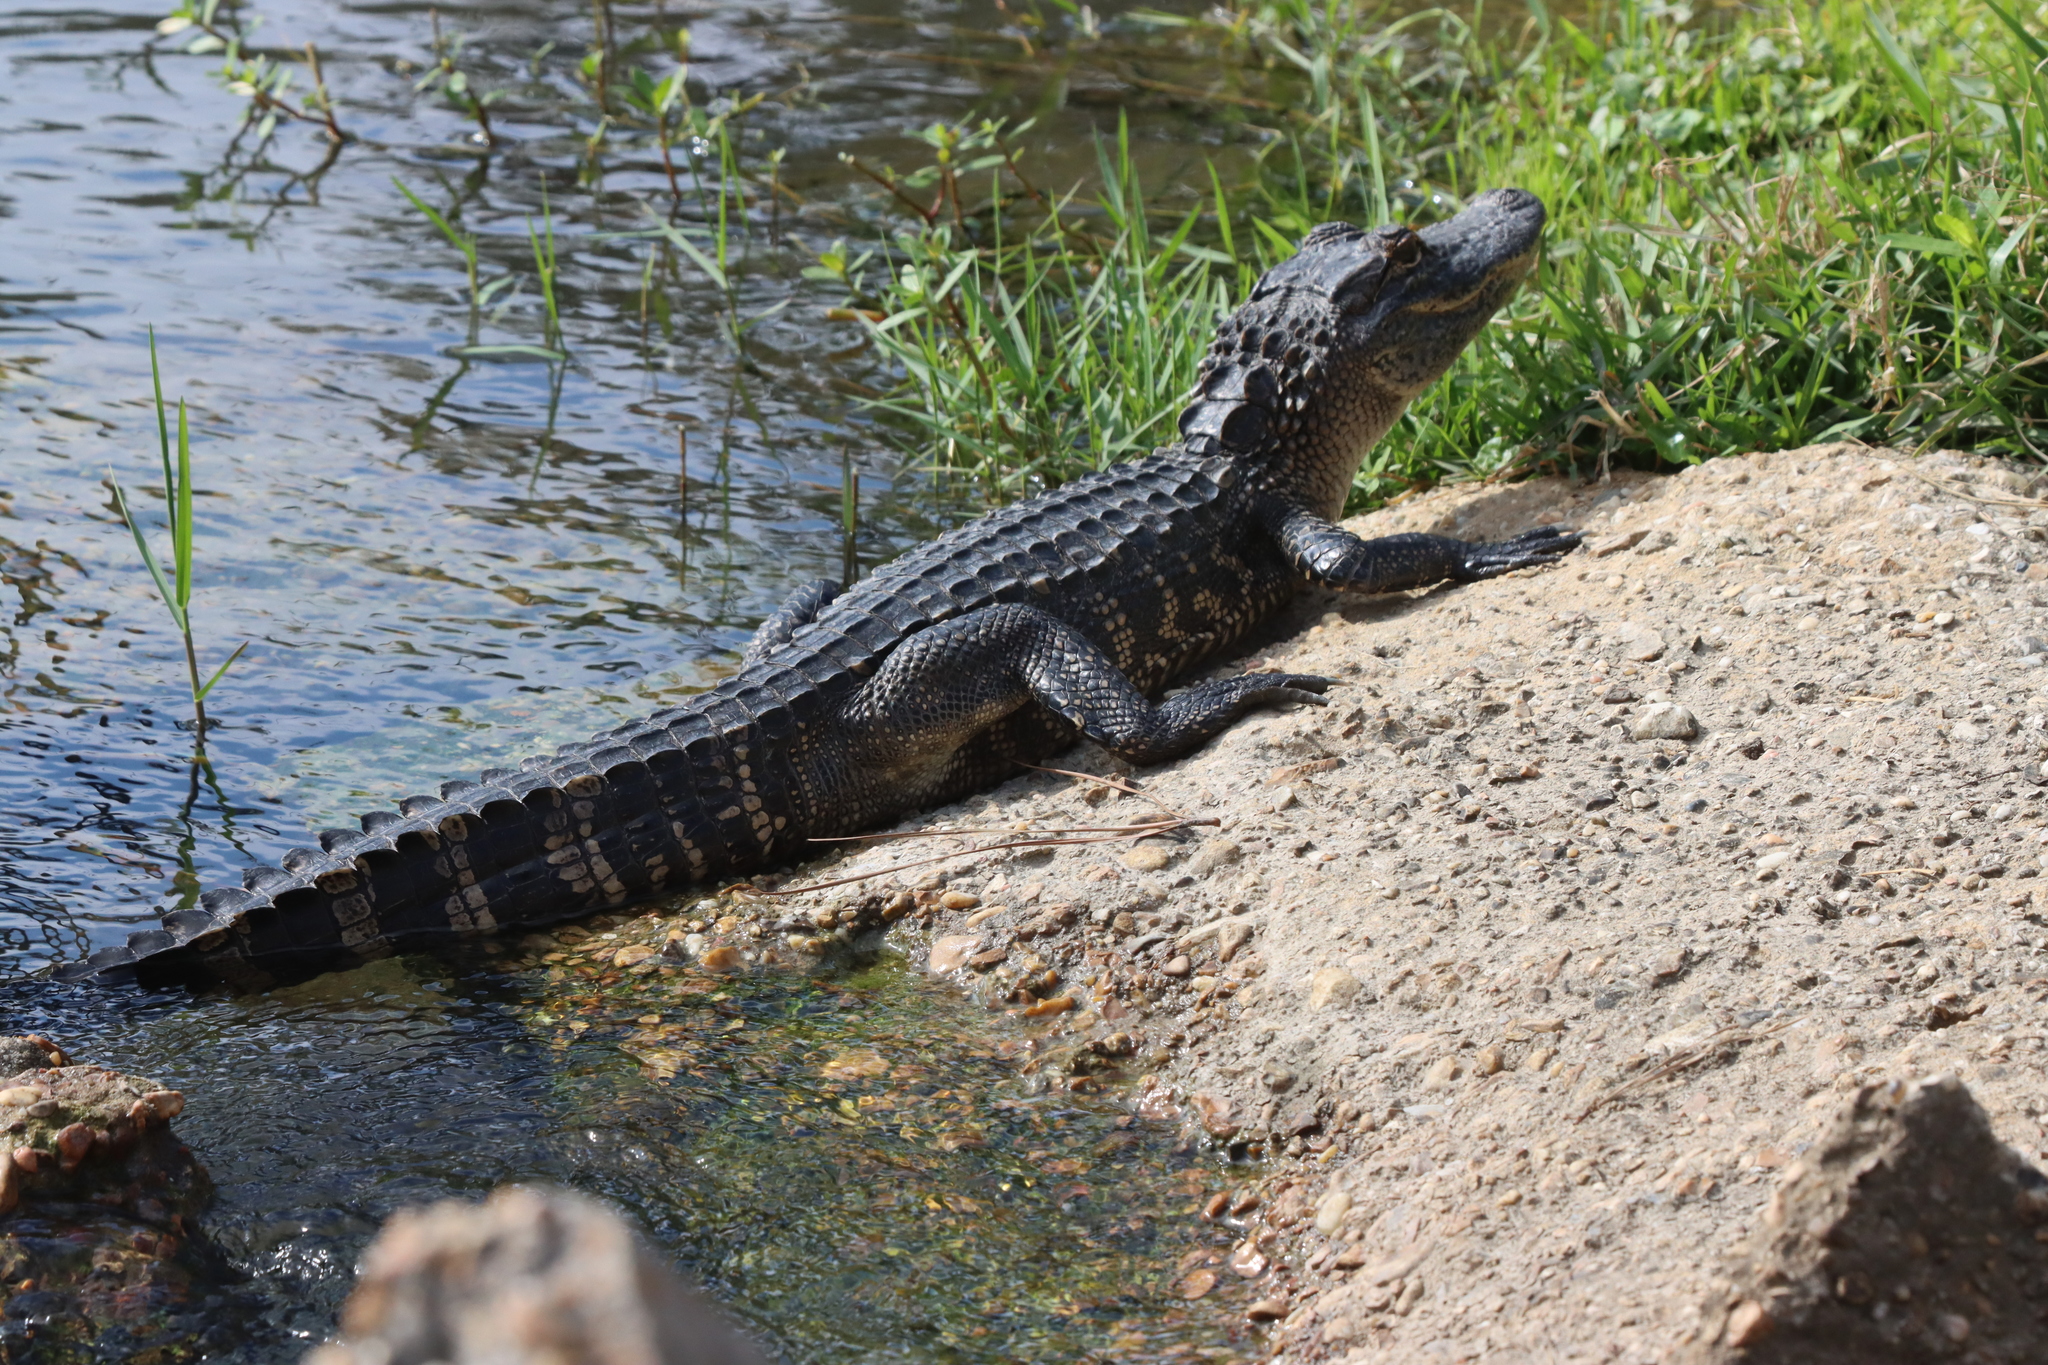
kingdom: Animalia
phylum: Chordata
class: Crocodylia
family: Alligatoridae
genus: Alligator
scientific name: Alligator mississippiensis
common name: American alligator
